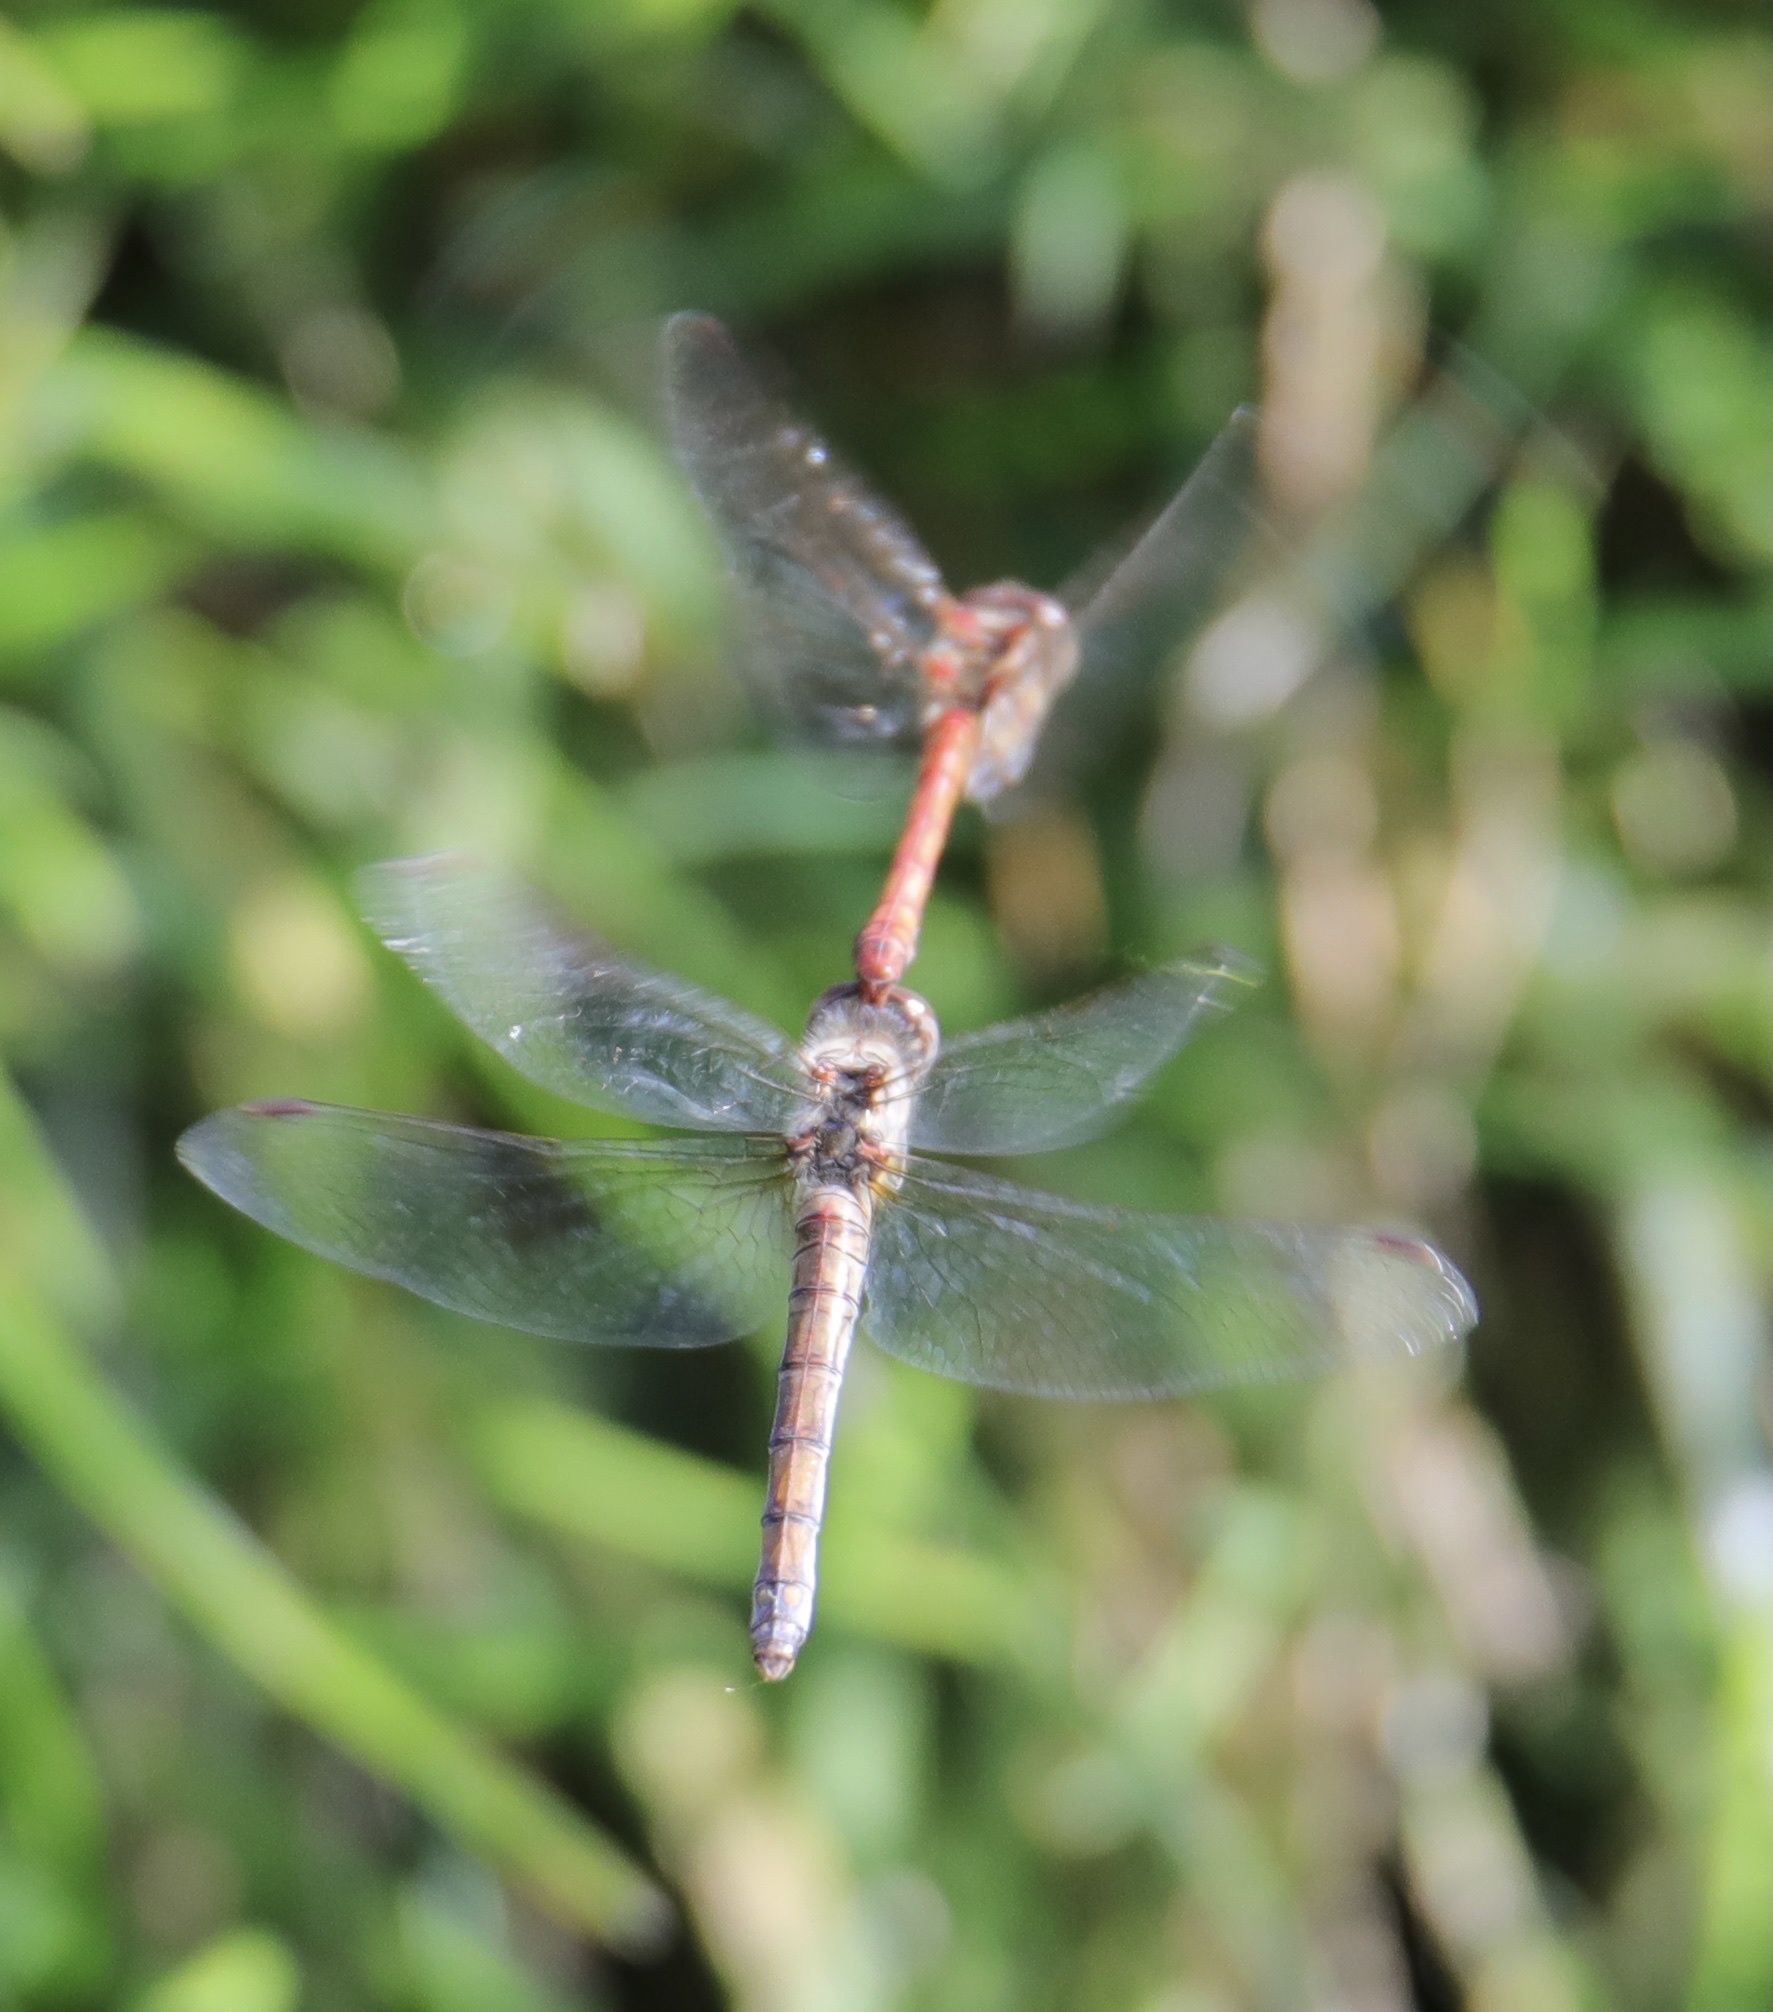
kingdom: Animalia
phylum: Arthropoda
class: Insecta
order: Odonata
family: Libellulidae
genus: Sympetrum
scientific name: Sympetrum striolatum
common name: Common darter
